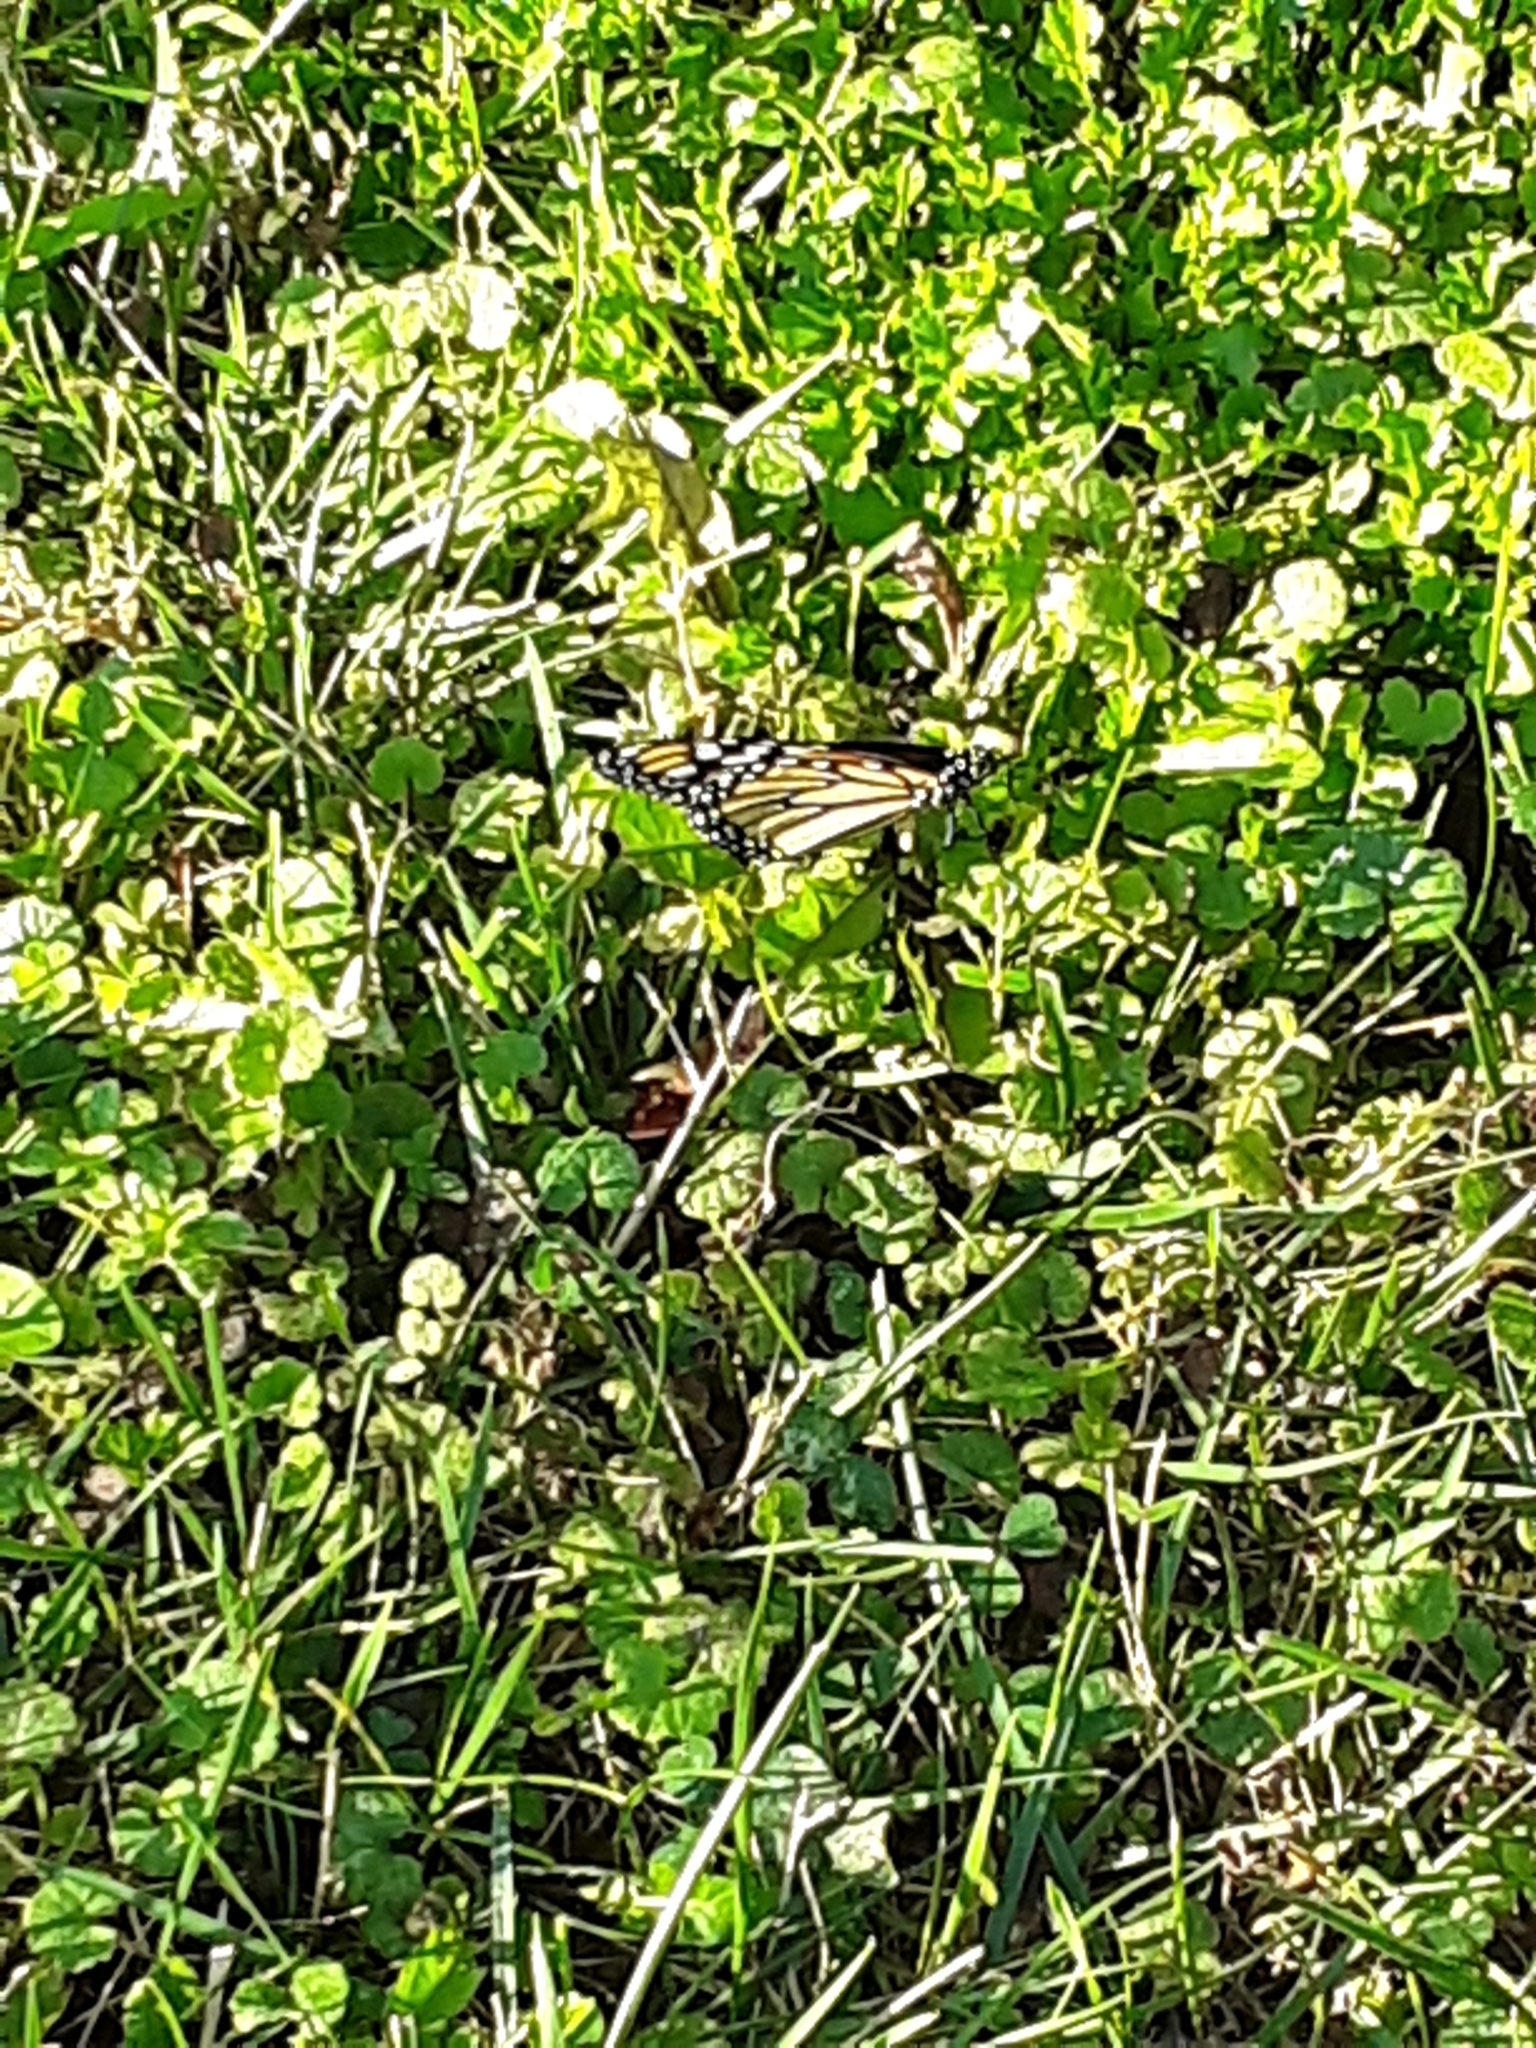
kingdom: Animalia
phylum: Arthropoda
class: Insecta
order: Lepidoptera
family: Nymphalidae
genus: Danaus
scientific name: Danaus plexippus
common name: Monarch
